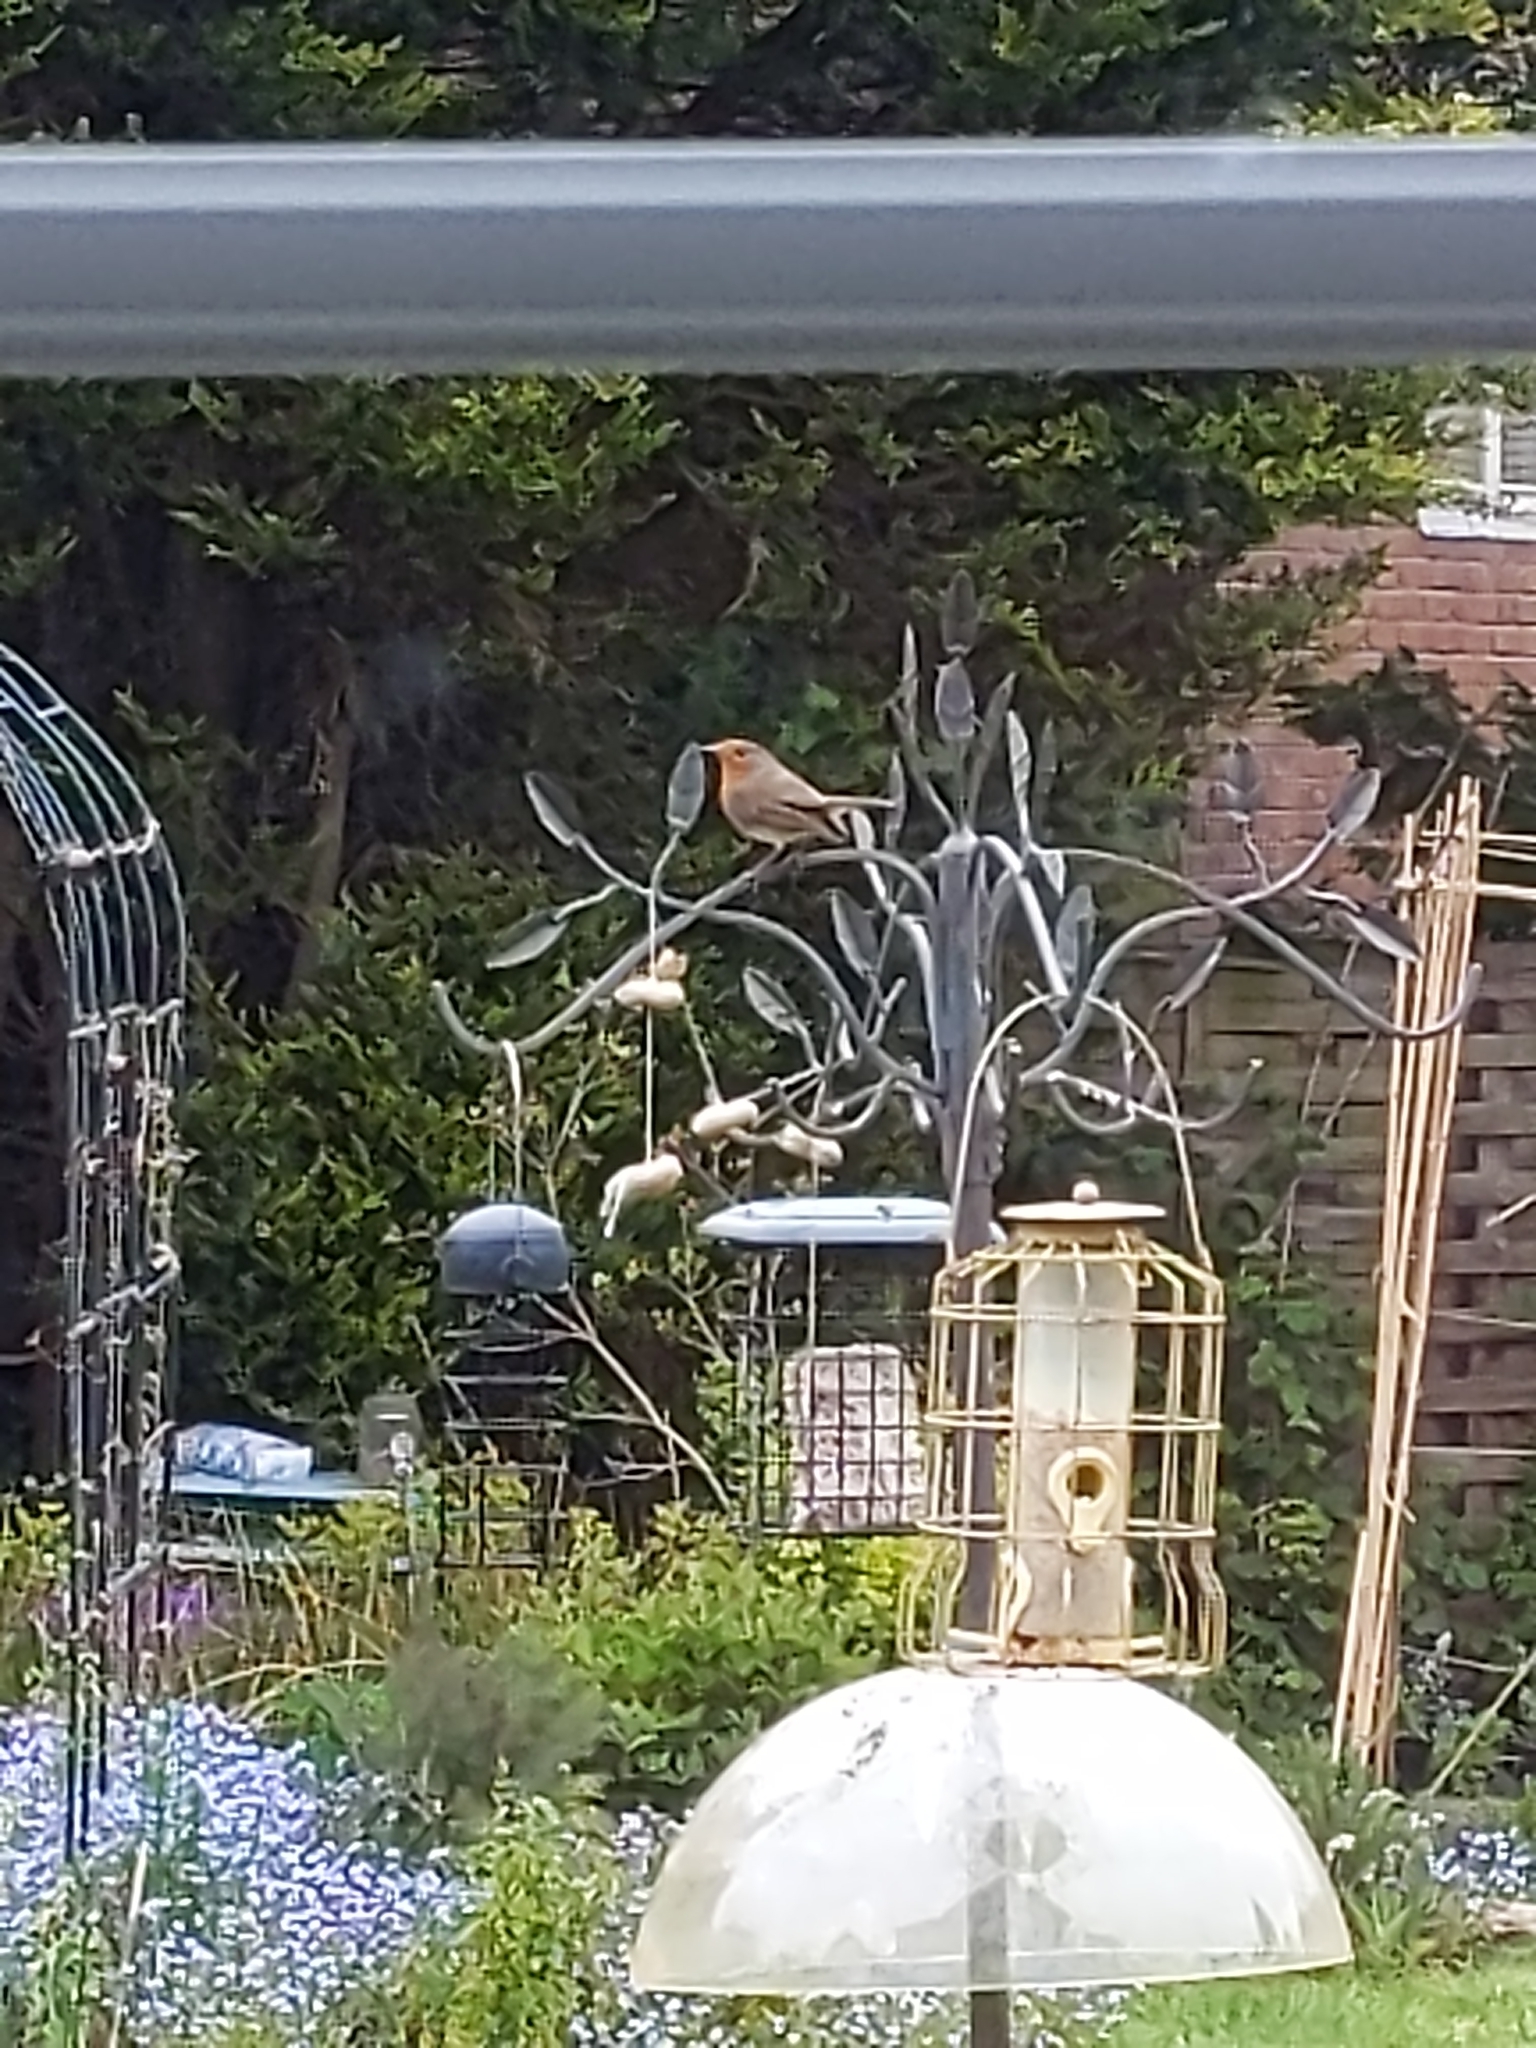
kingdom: Animalia
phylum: Chordata
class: Aves
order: Passeriformes
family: Muscicapidae
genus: Erithacus
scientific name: Erithacus rubecula
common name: European robin
